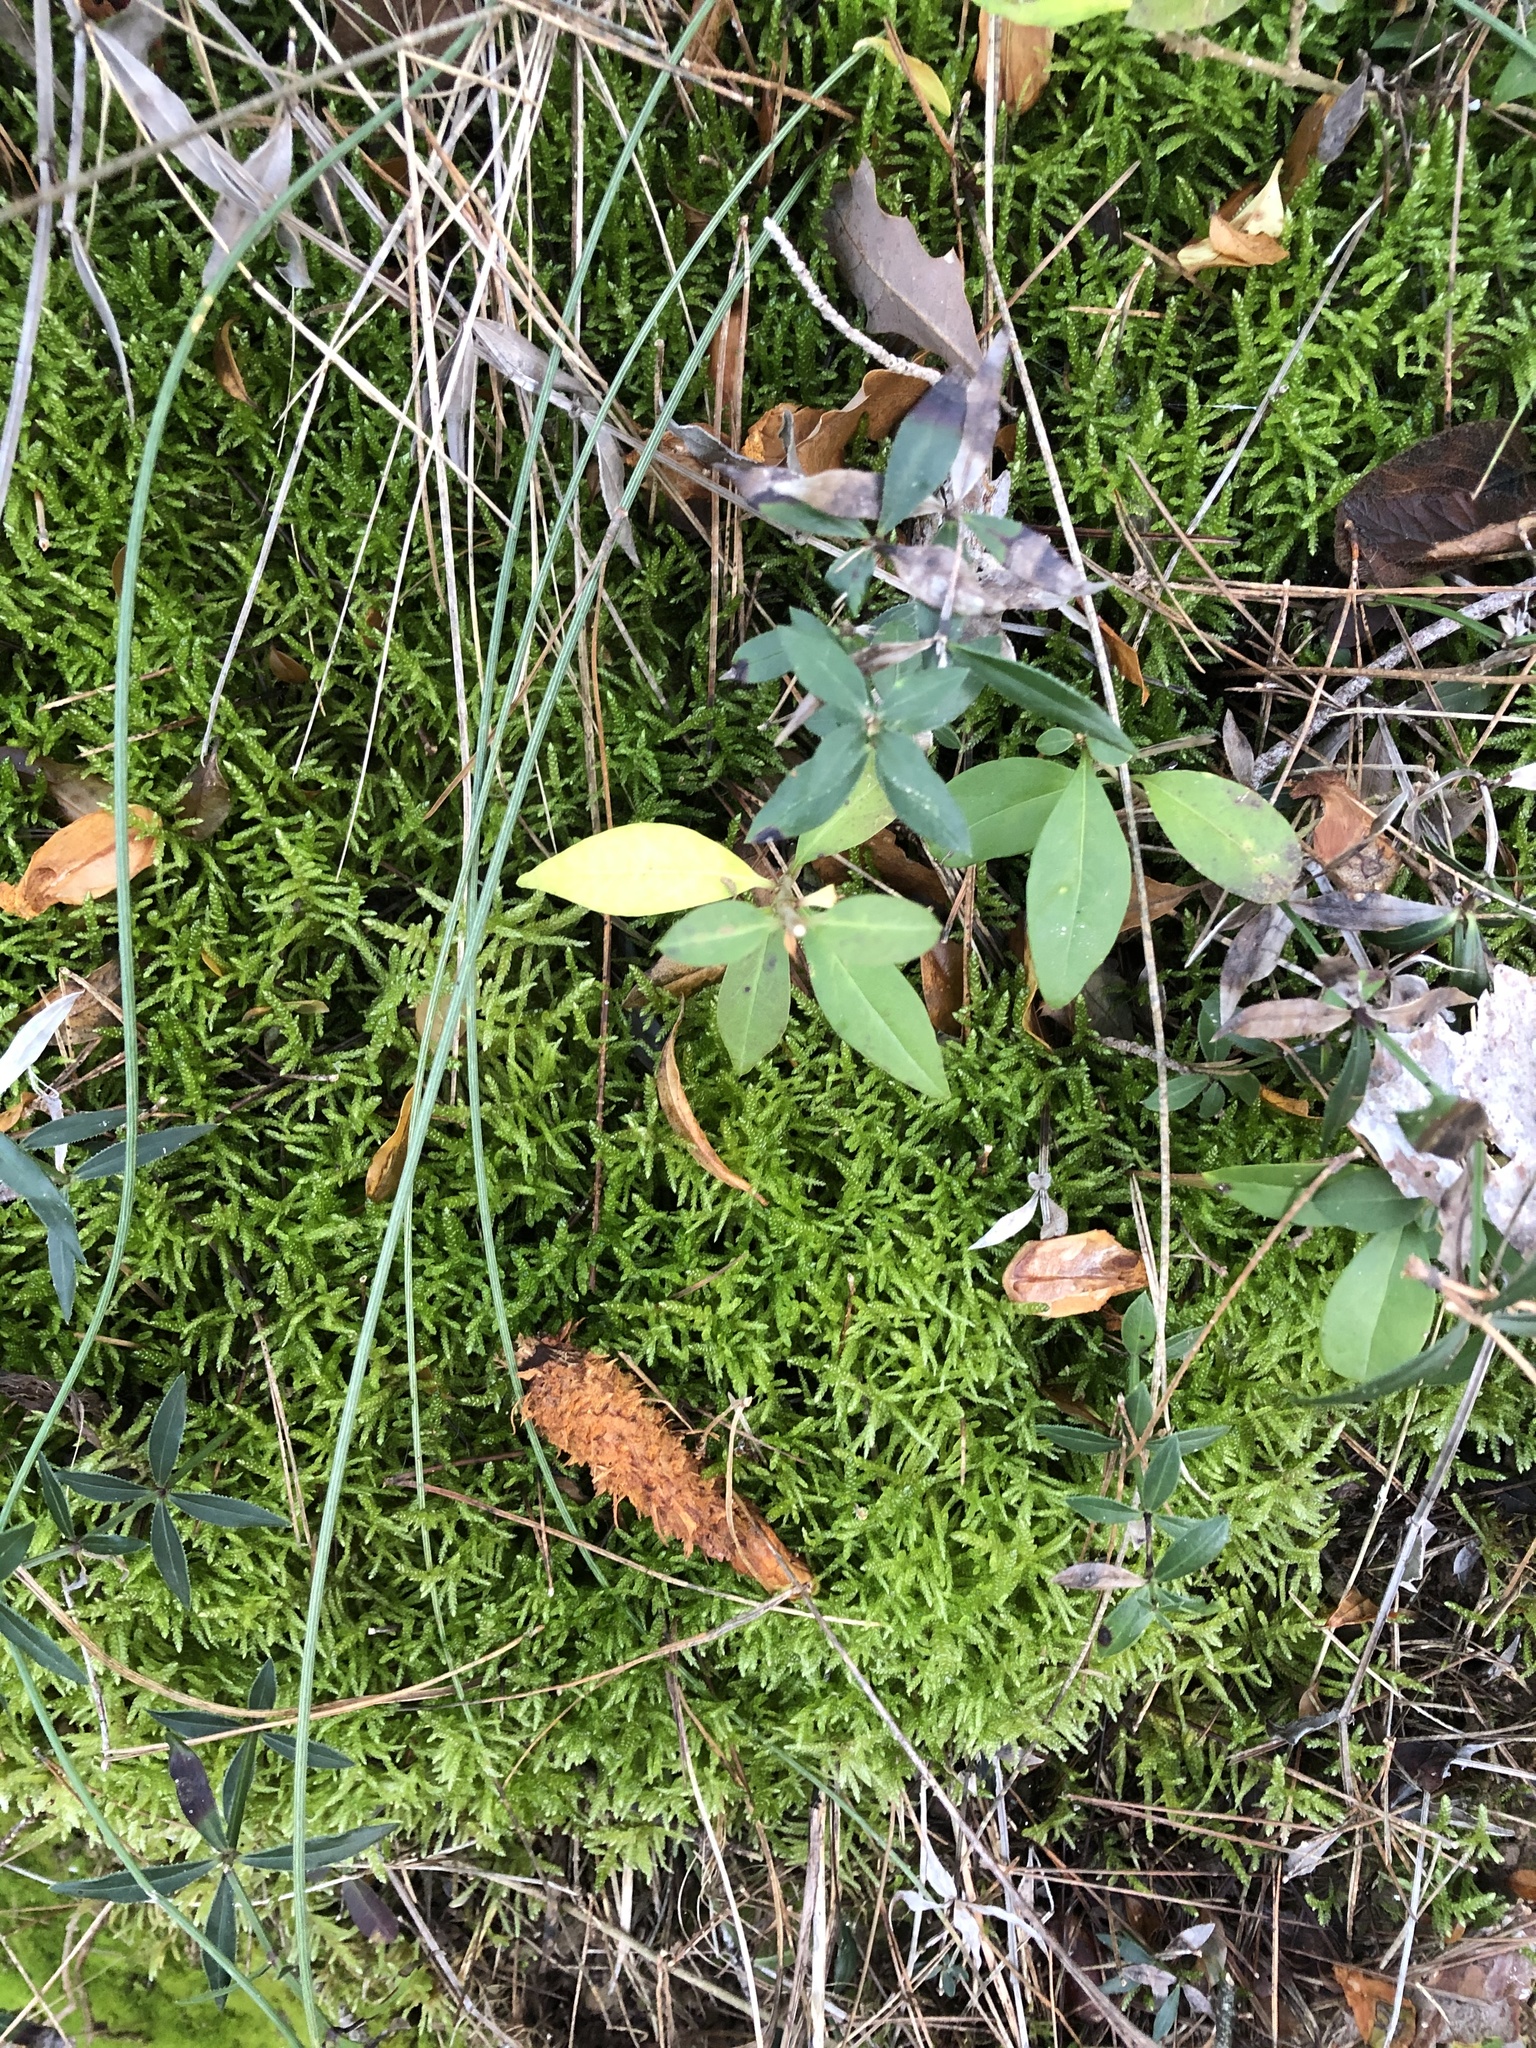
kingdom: Plantae
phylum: Bryophyta
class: Bryopsida
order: Hypnales
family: Brachytheciaceae
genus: Pseudoscleropodium
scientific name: Pseudoscleropodium purum
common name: Neat feather-moss
